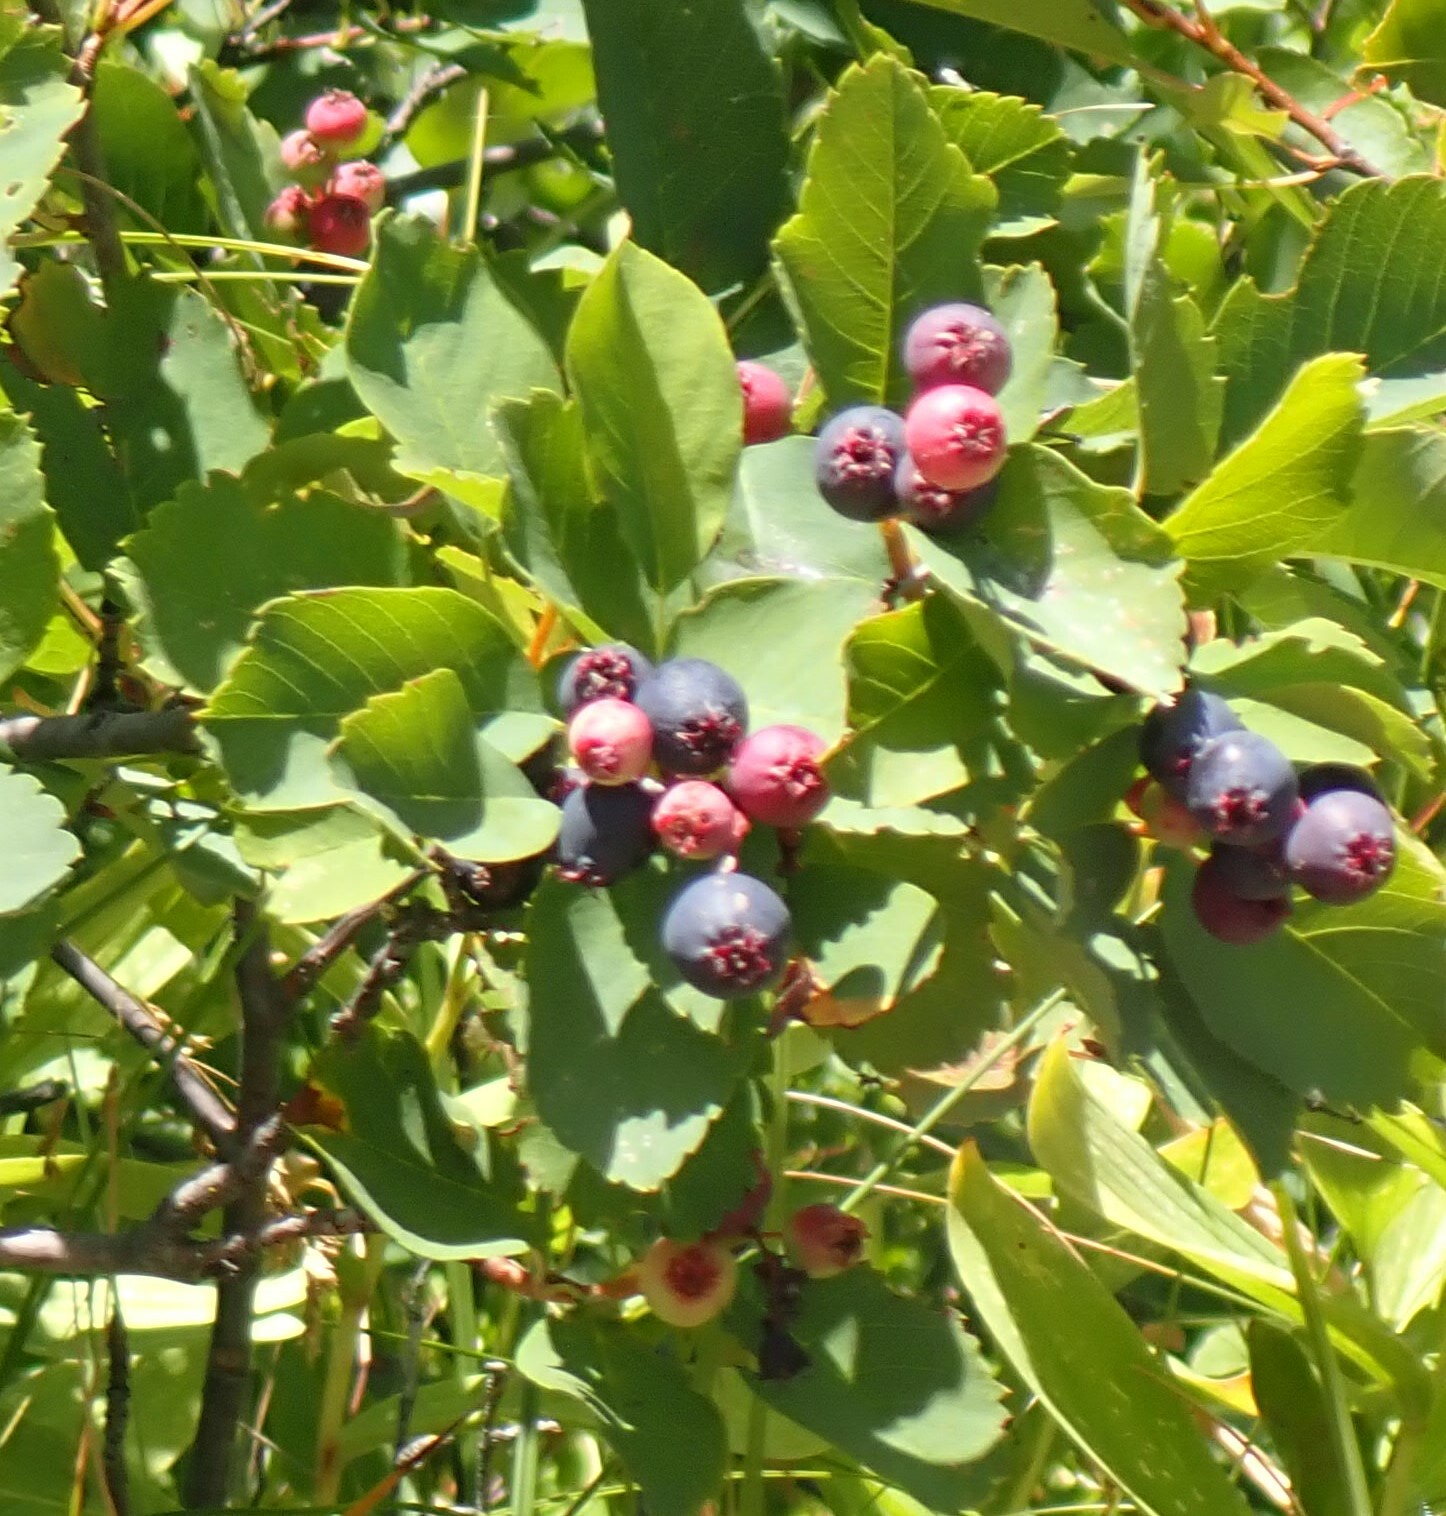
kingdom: Plantae
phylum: Tracheophyta
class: Magnoliopsida
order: Rosales
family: Rosaceae
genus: Amelanchier
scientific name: Amelanchier alnifolia
